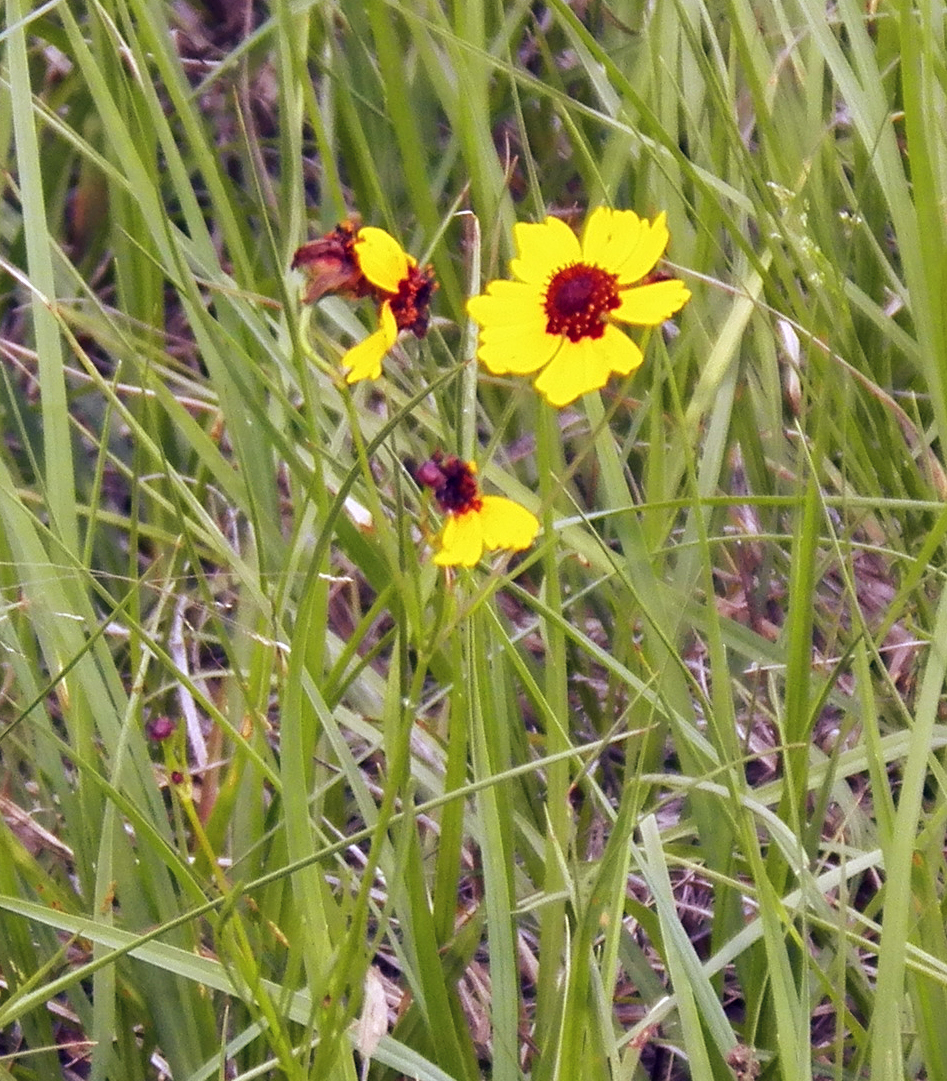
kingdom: Plantae
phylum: Tracheophyta
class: Magnoliopsida
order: Asterales
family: Asteraceae
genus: Coreopsis
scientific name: Coreopsis tinctoria
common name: Garden tickseed
